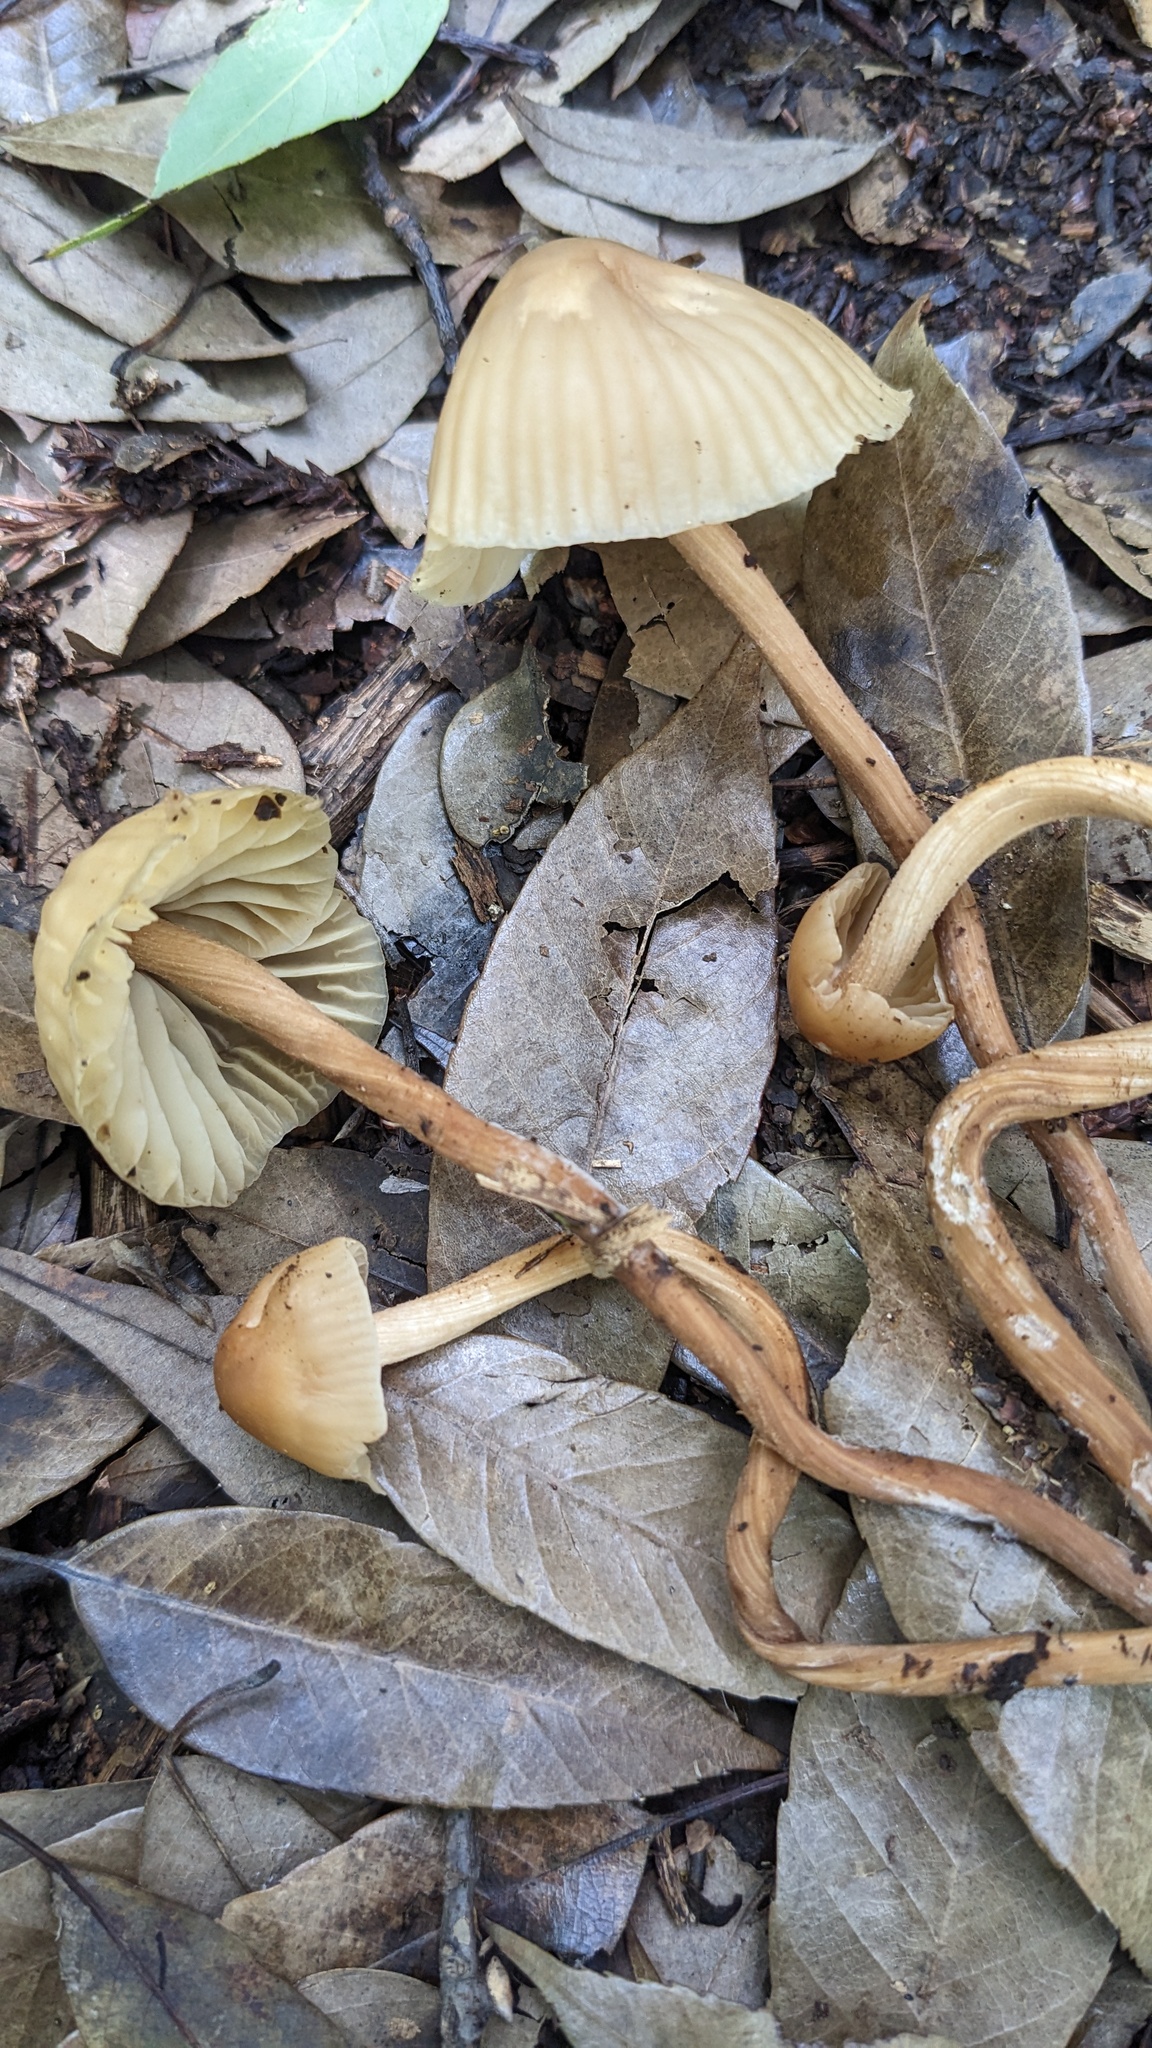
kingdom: Fungi
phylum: Basidiomycota
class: Agaricomycetes
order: Agaricales
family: Marasmiaceae
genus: Marasmius
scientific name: Marasmius maximus
